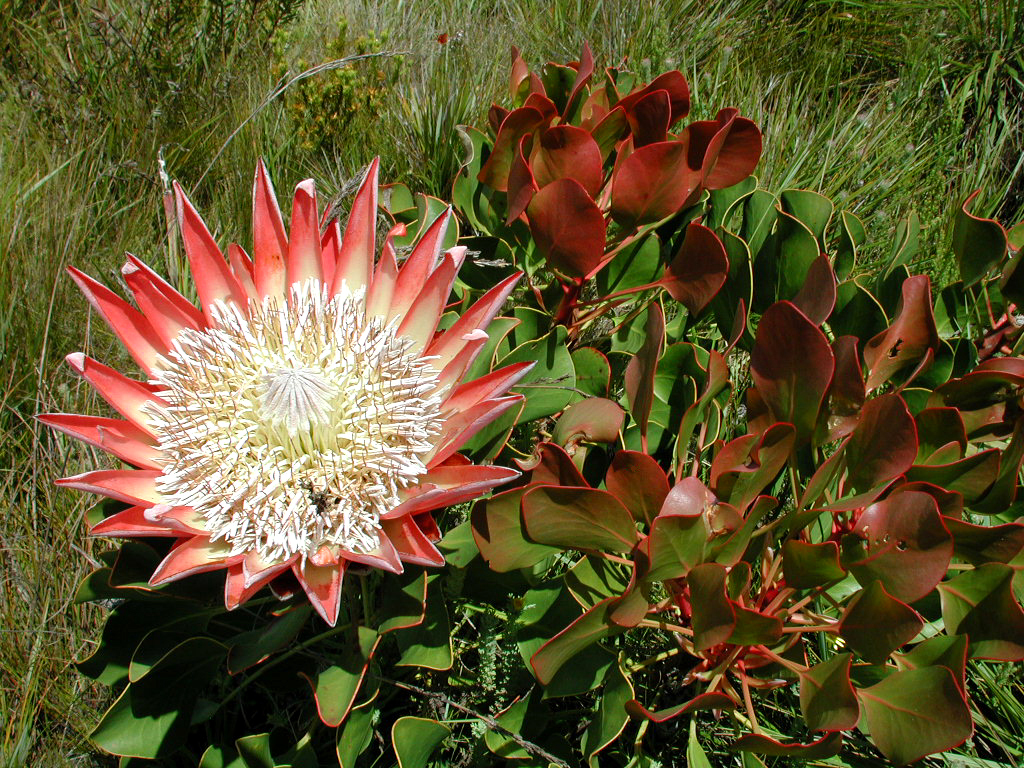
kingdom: Plantae
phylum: Tracheophyta
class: Magnoliopsida
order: Proteales
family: Proteaceae
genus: Protea
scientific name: Protea cynaroides
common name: King protea
